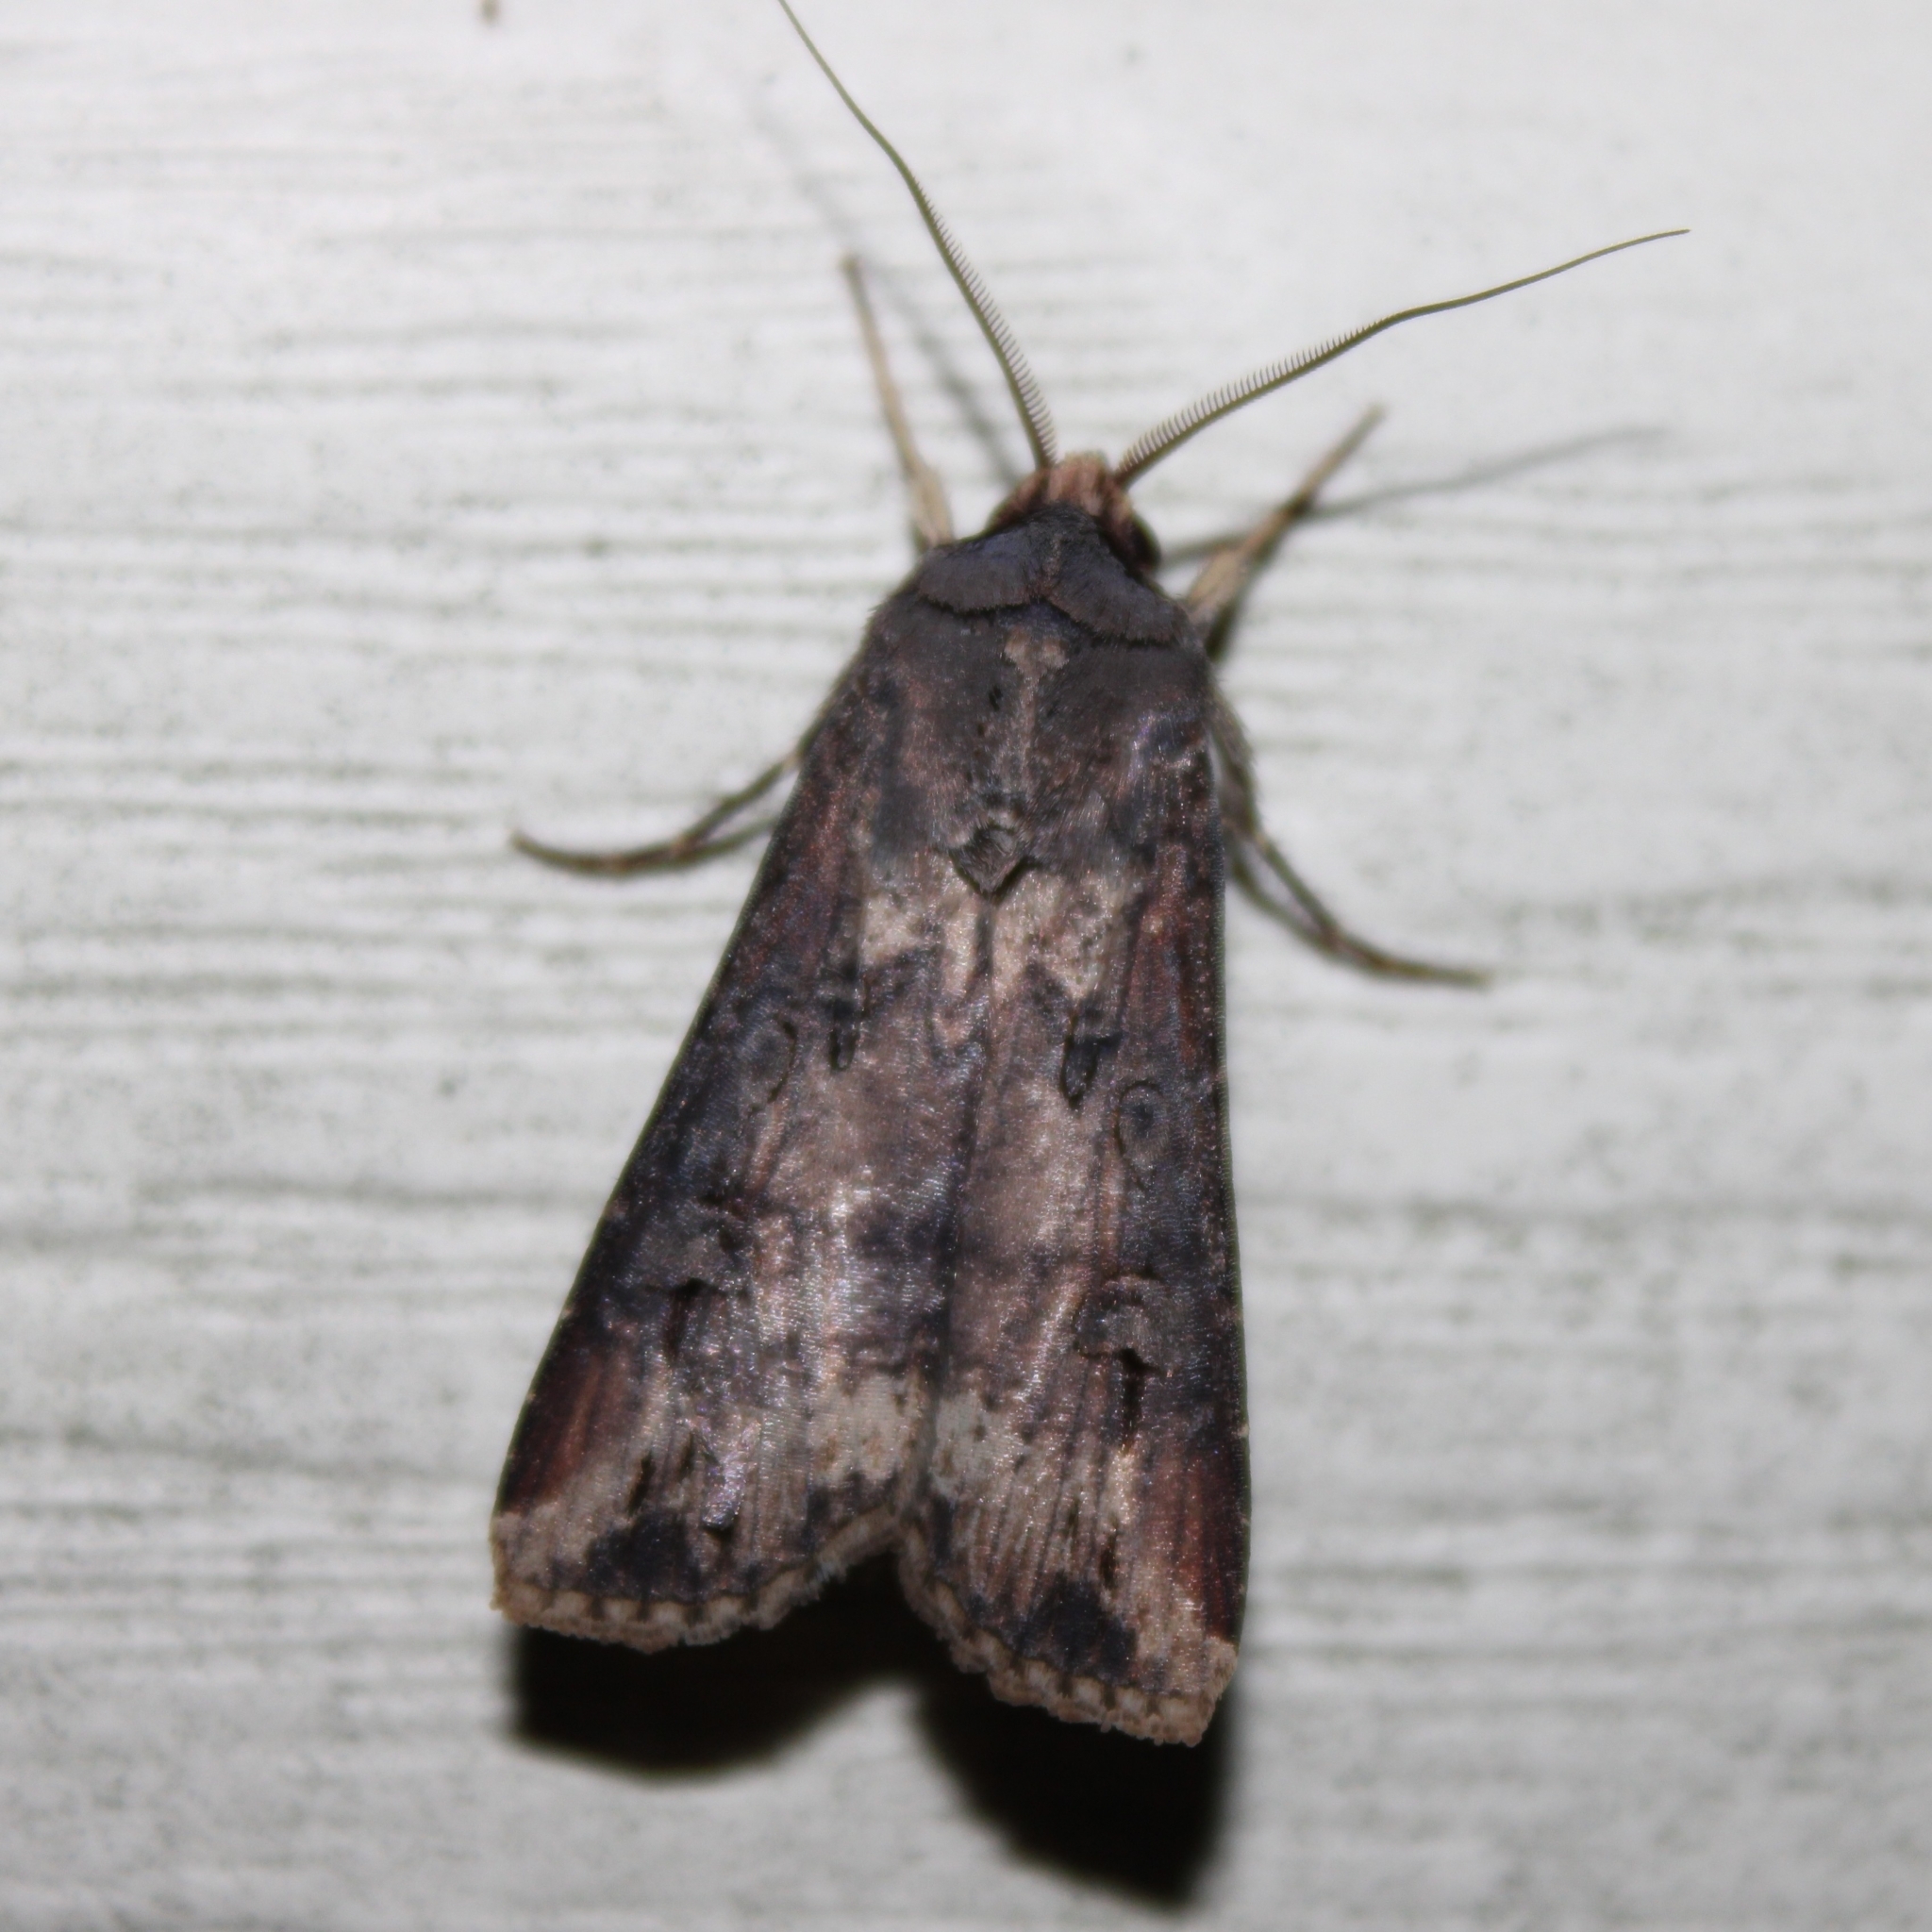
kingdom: Animalia
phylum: Arthropoda
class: Insecta
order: Lepidoptera
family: Noctuidae
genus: Agrotis
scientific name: Agrotis ipsilon
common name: Dark sword-grass
